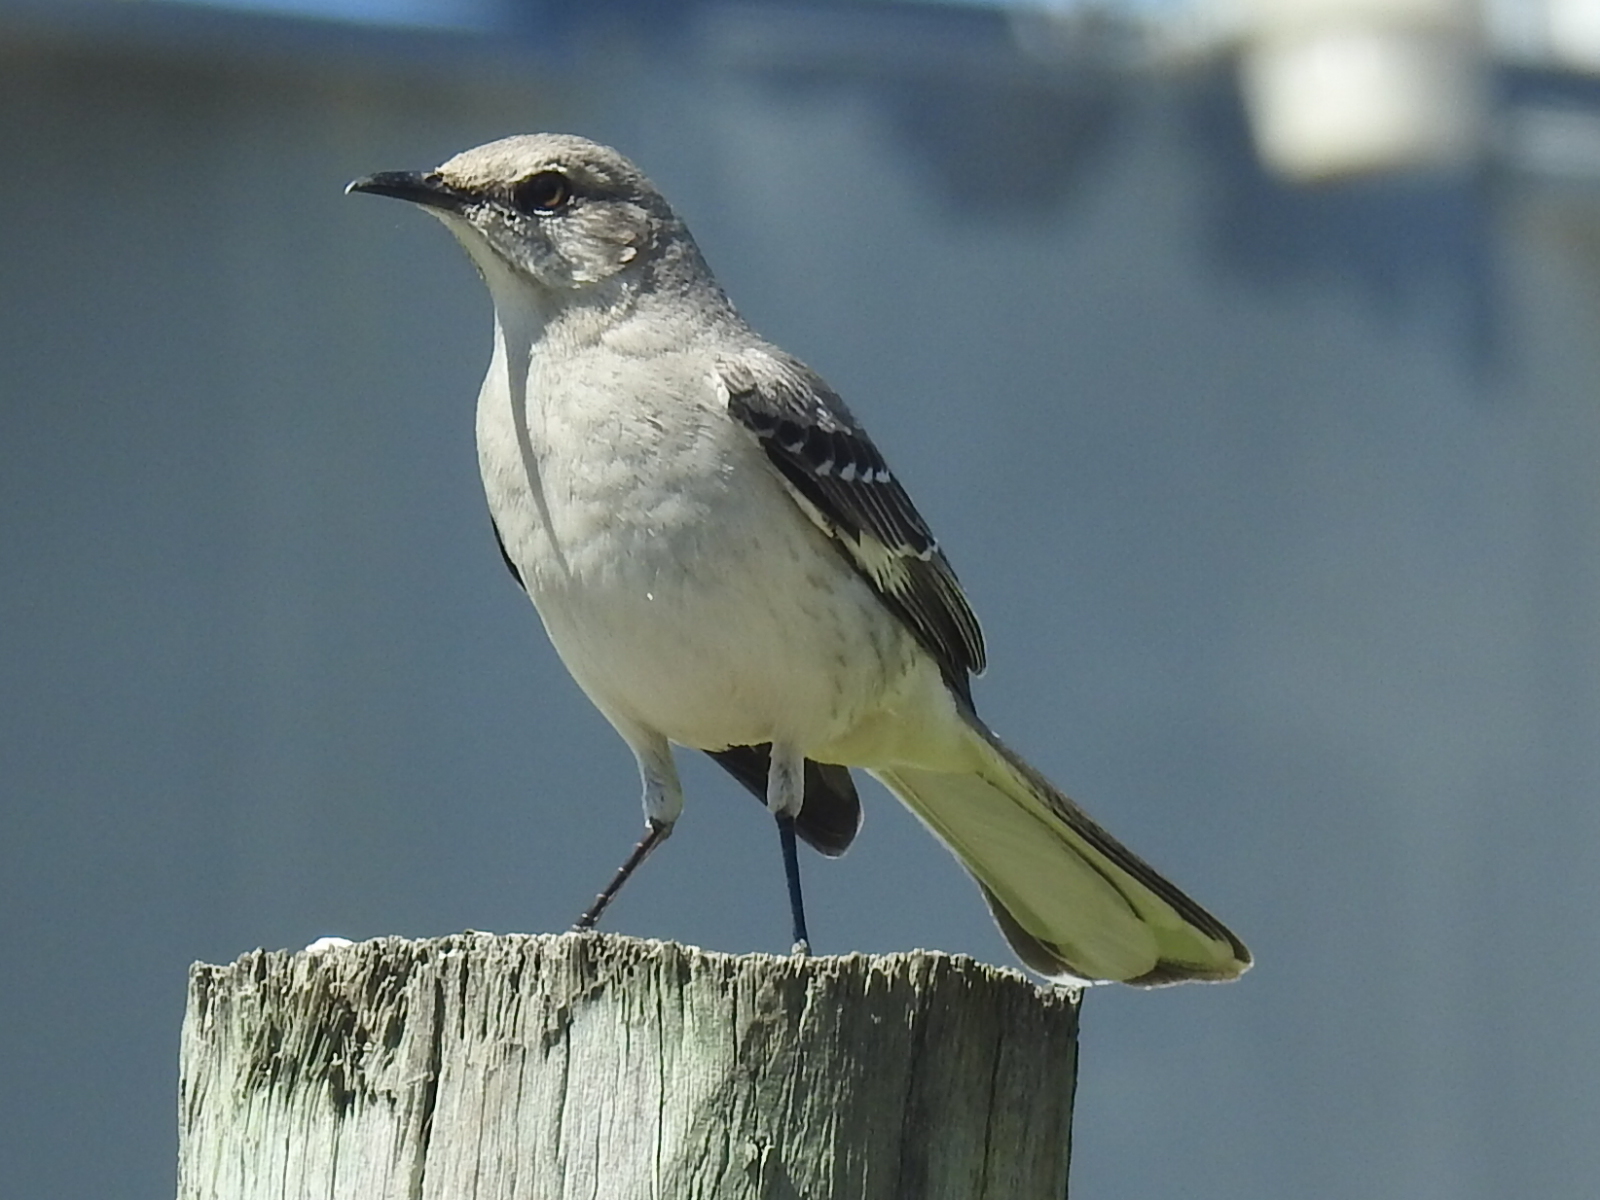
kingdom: Animalia
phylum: Chordata
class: Aves
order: Passeriformes
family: Mimidae
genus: Mimus
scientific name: Mimus polyglottos
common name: Northern mockingbird
